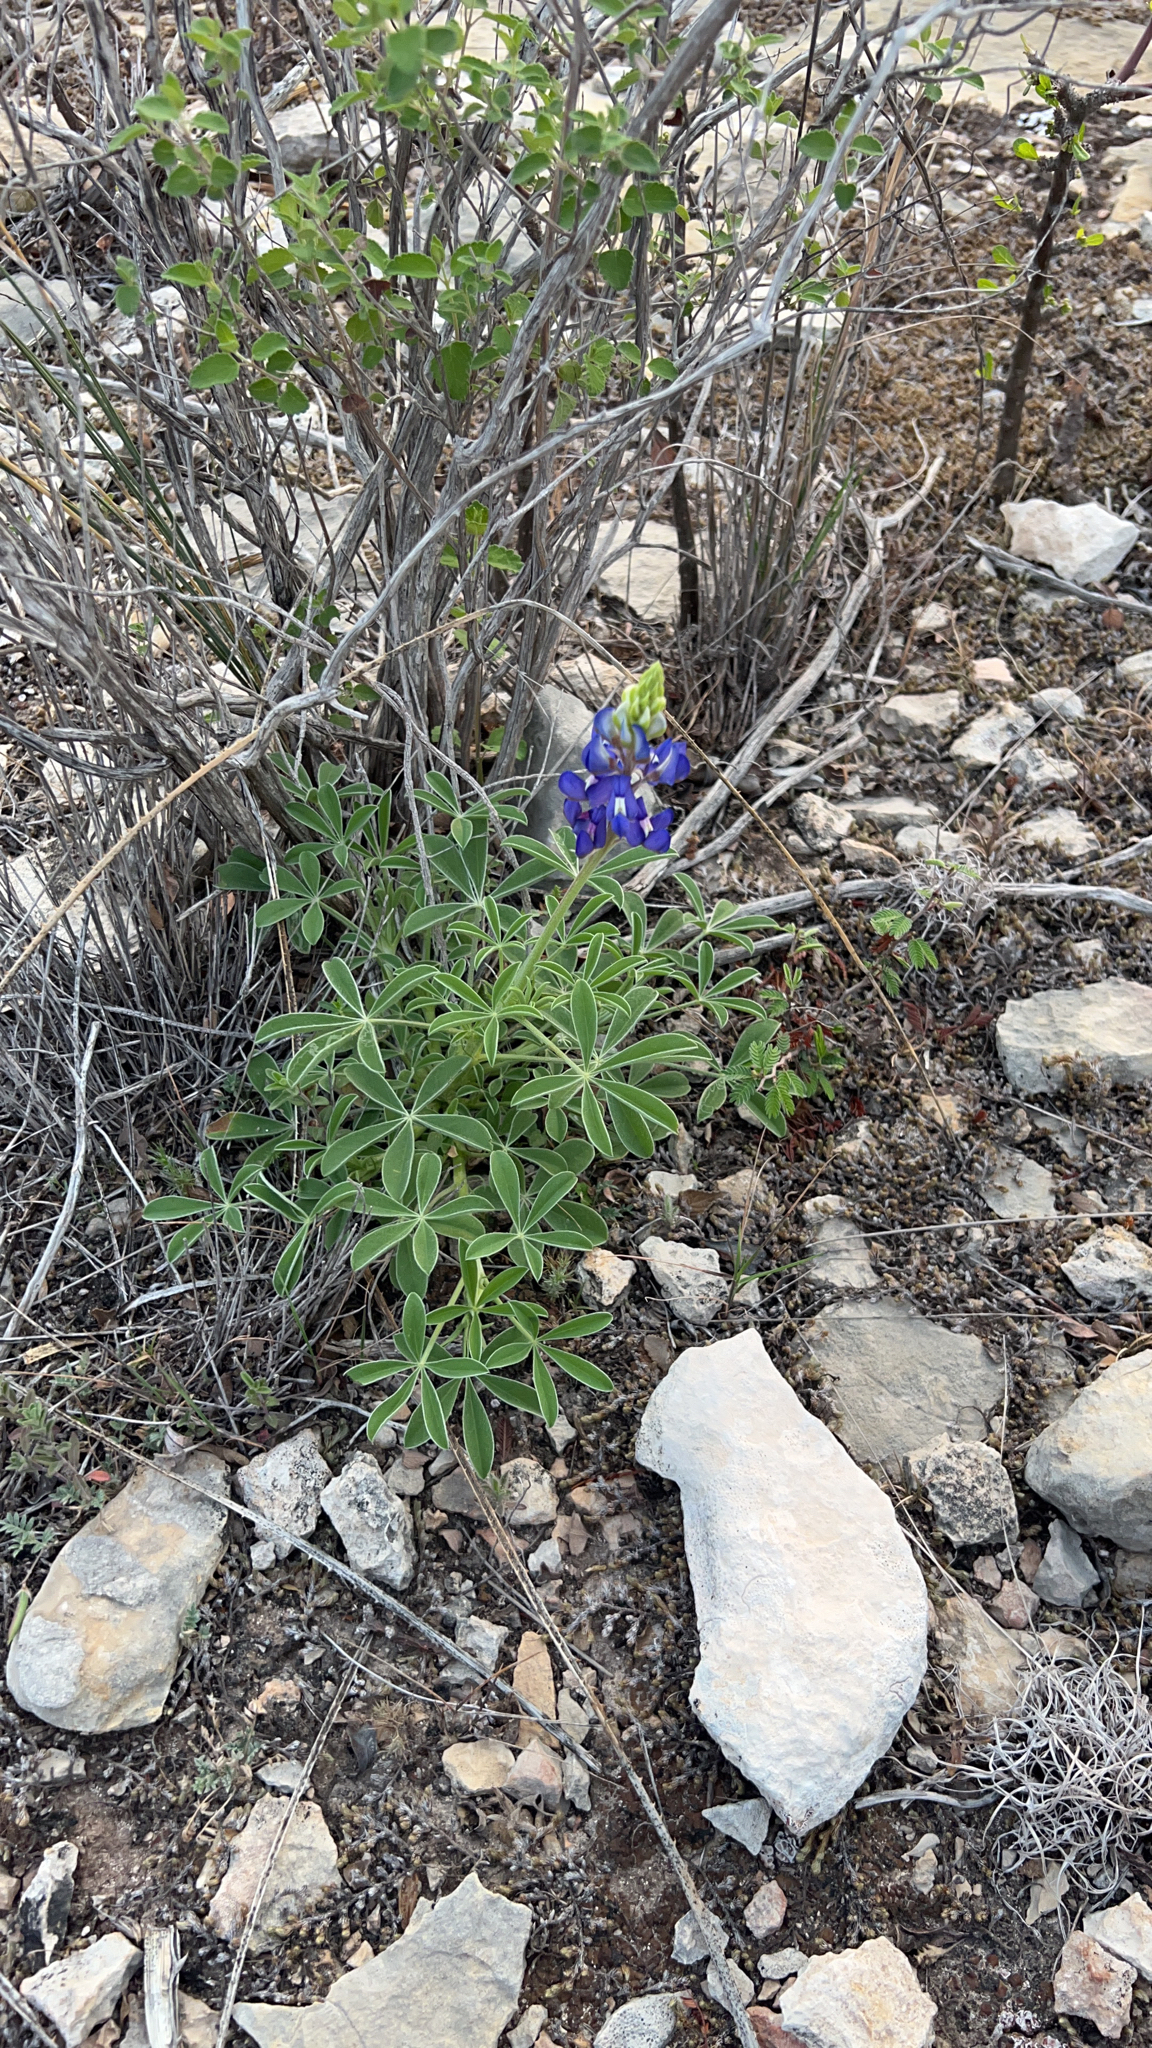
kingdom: Plantae
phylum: Tracheophyta
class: Magnoliopsida
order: Fabales
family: Fabaceae
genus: Lupinus
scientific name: Lupinus texensis
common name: Texas bluebonnet
